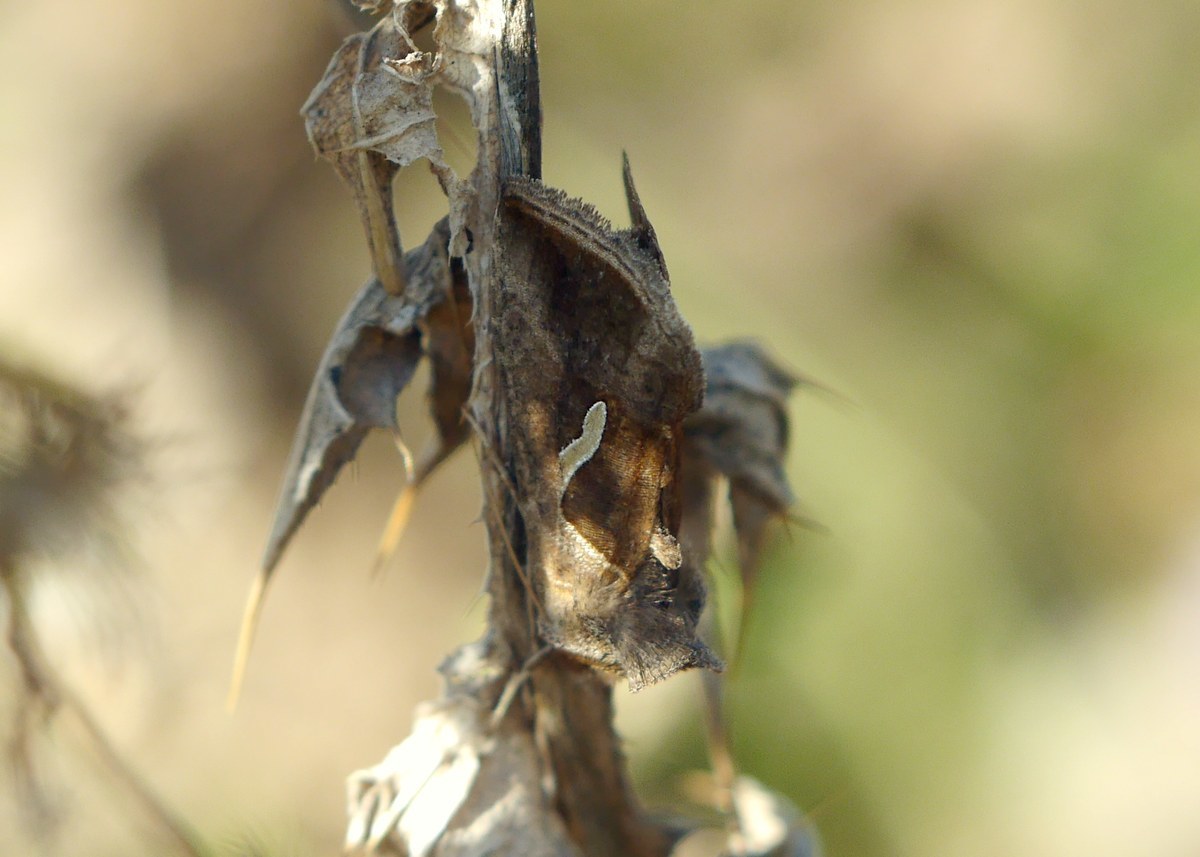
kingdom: Animalia
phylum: Arthropoda
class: Insecta
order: Lepidoptera
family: Noctuidae
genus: Macdunnoughia
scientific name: Macdunnoughia confusa
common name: Dewick's plusia
